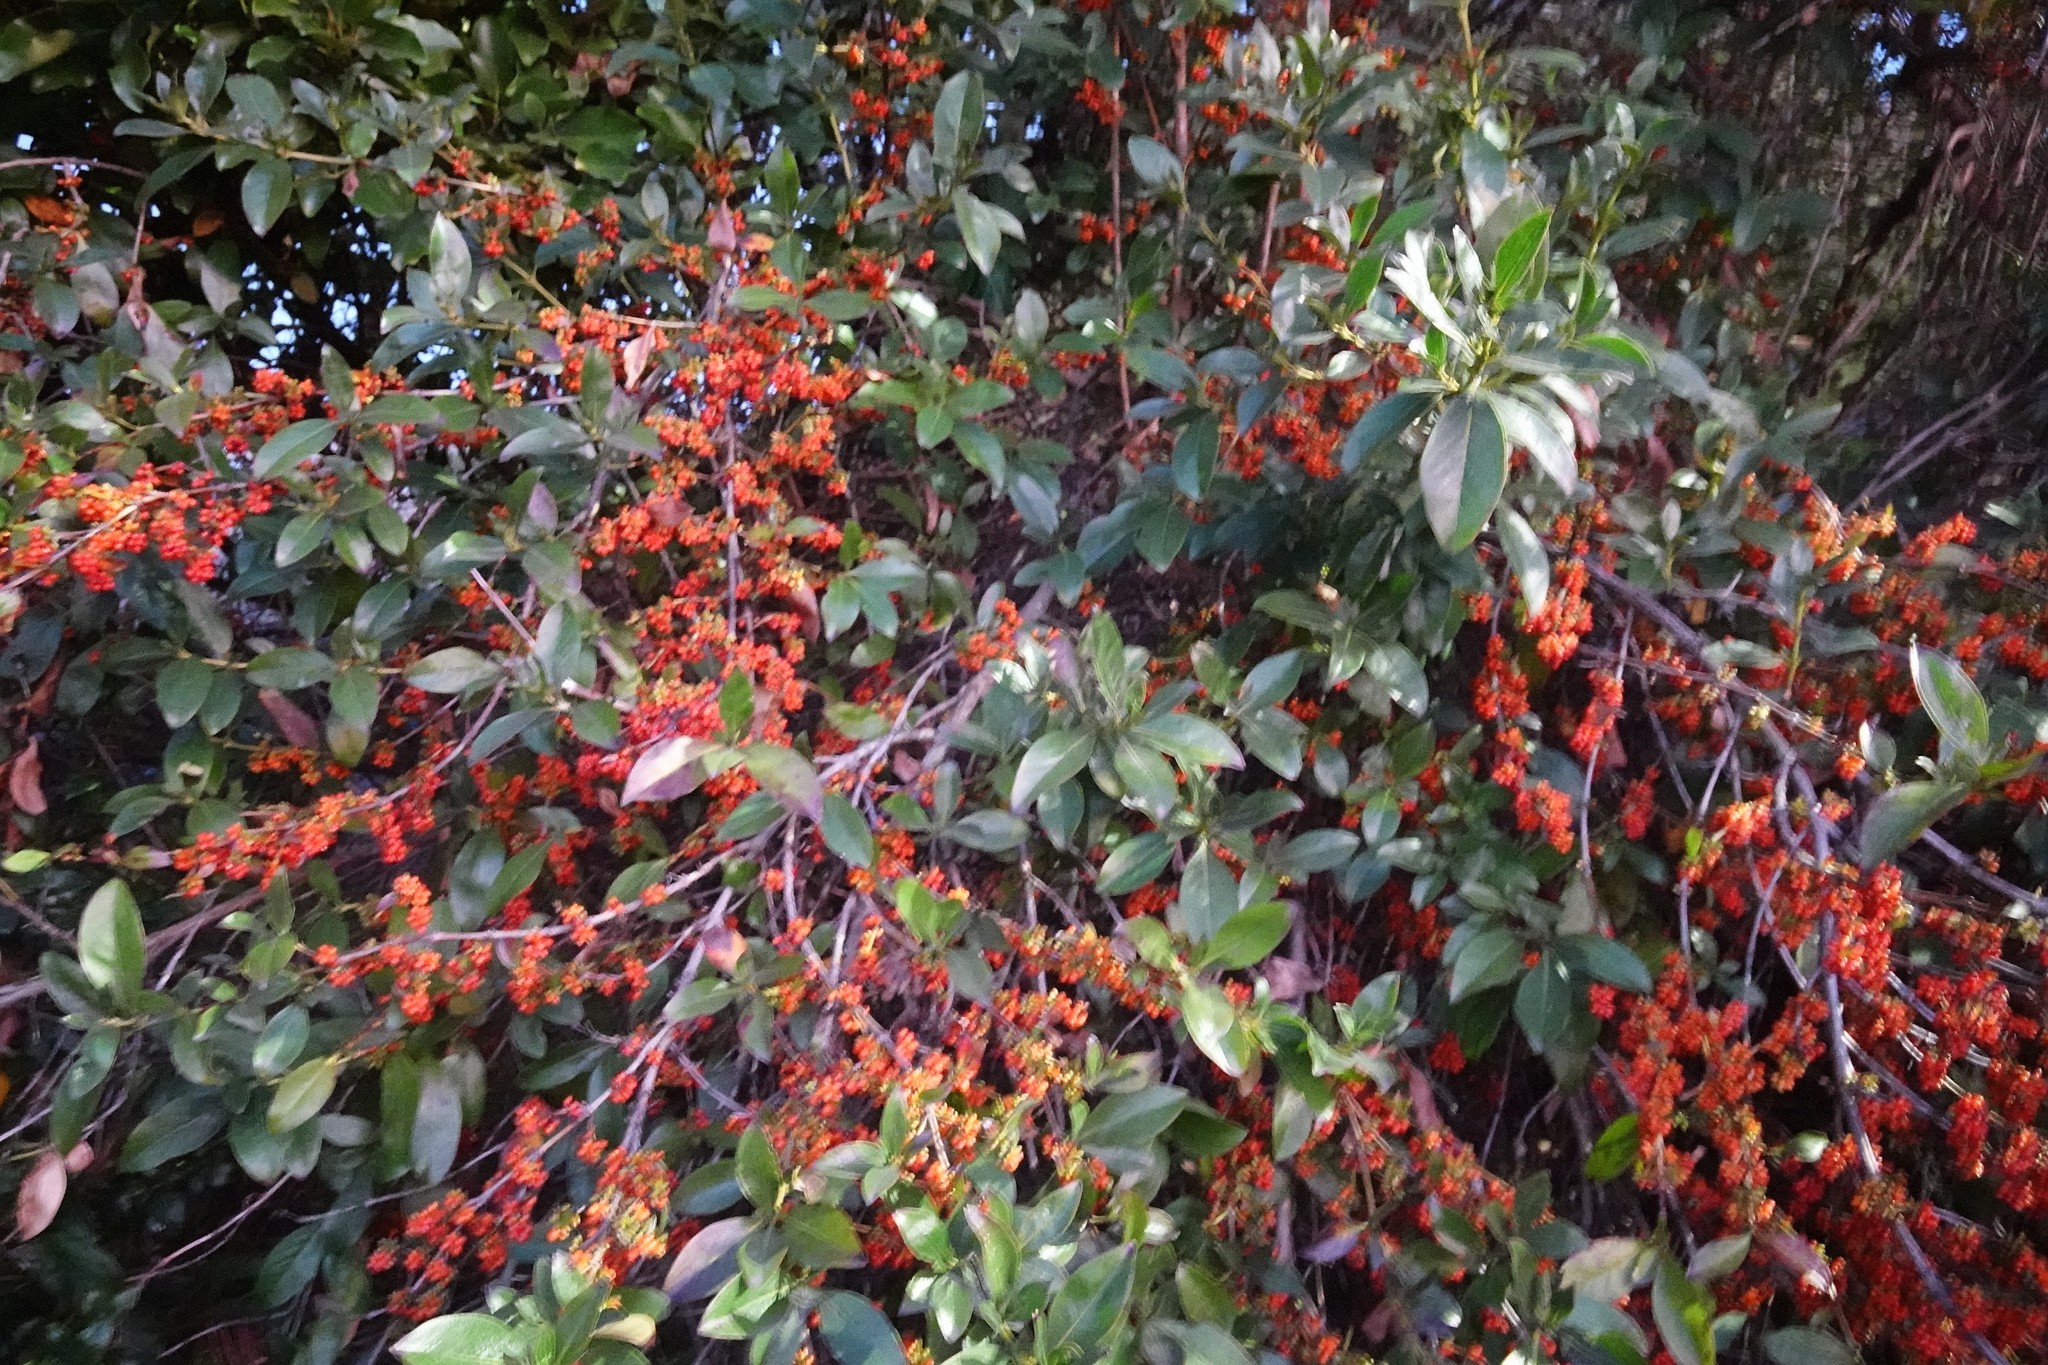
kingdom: Plantae
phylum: Tracheophyta
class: Magnoliopsida
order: Gentianales
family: Rubiaceae
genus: Coprosma
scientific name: Coprosma robusta
